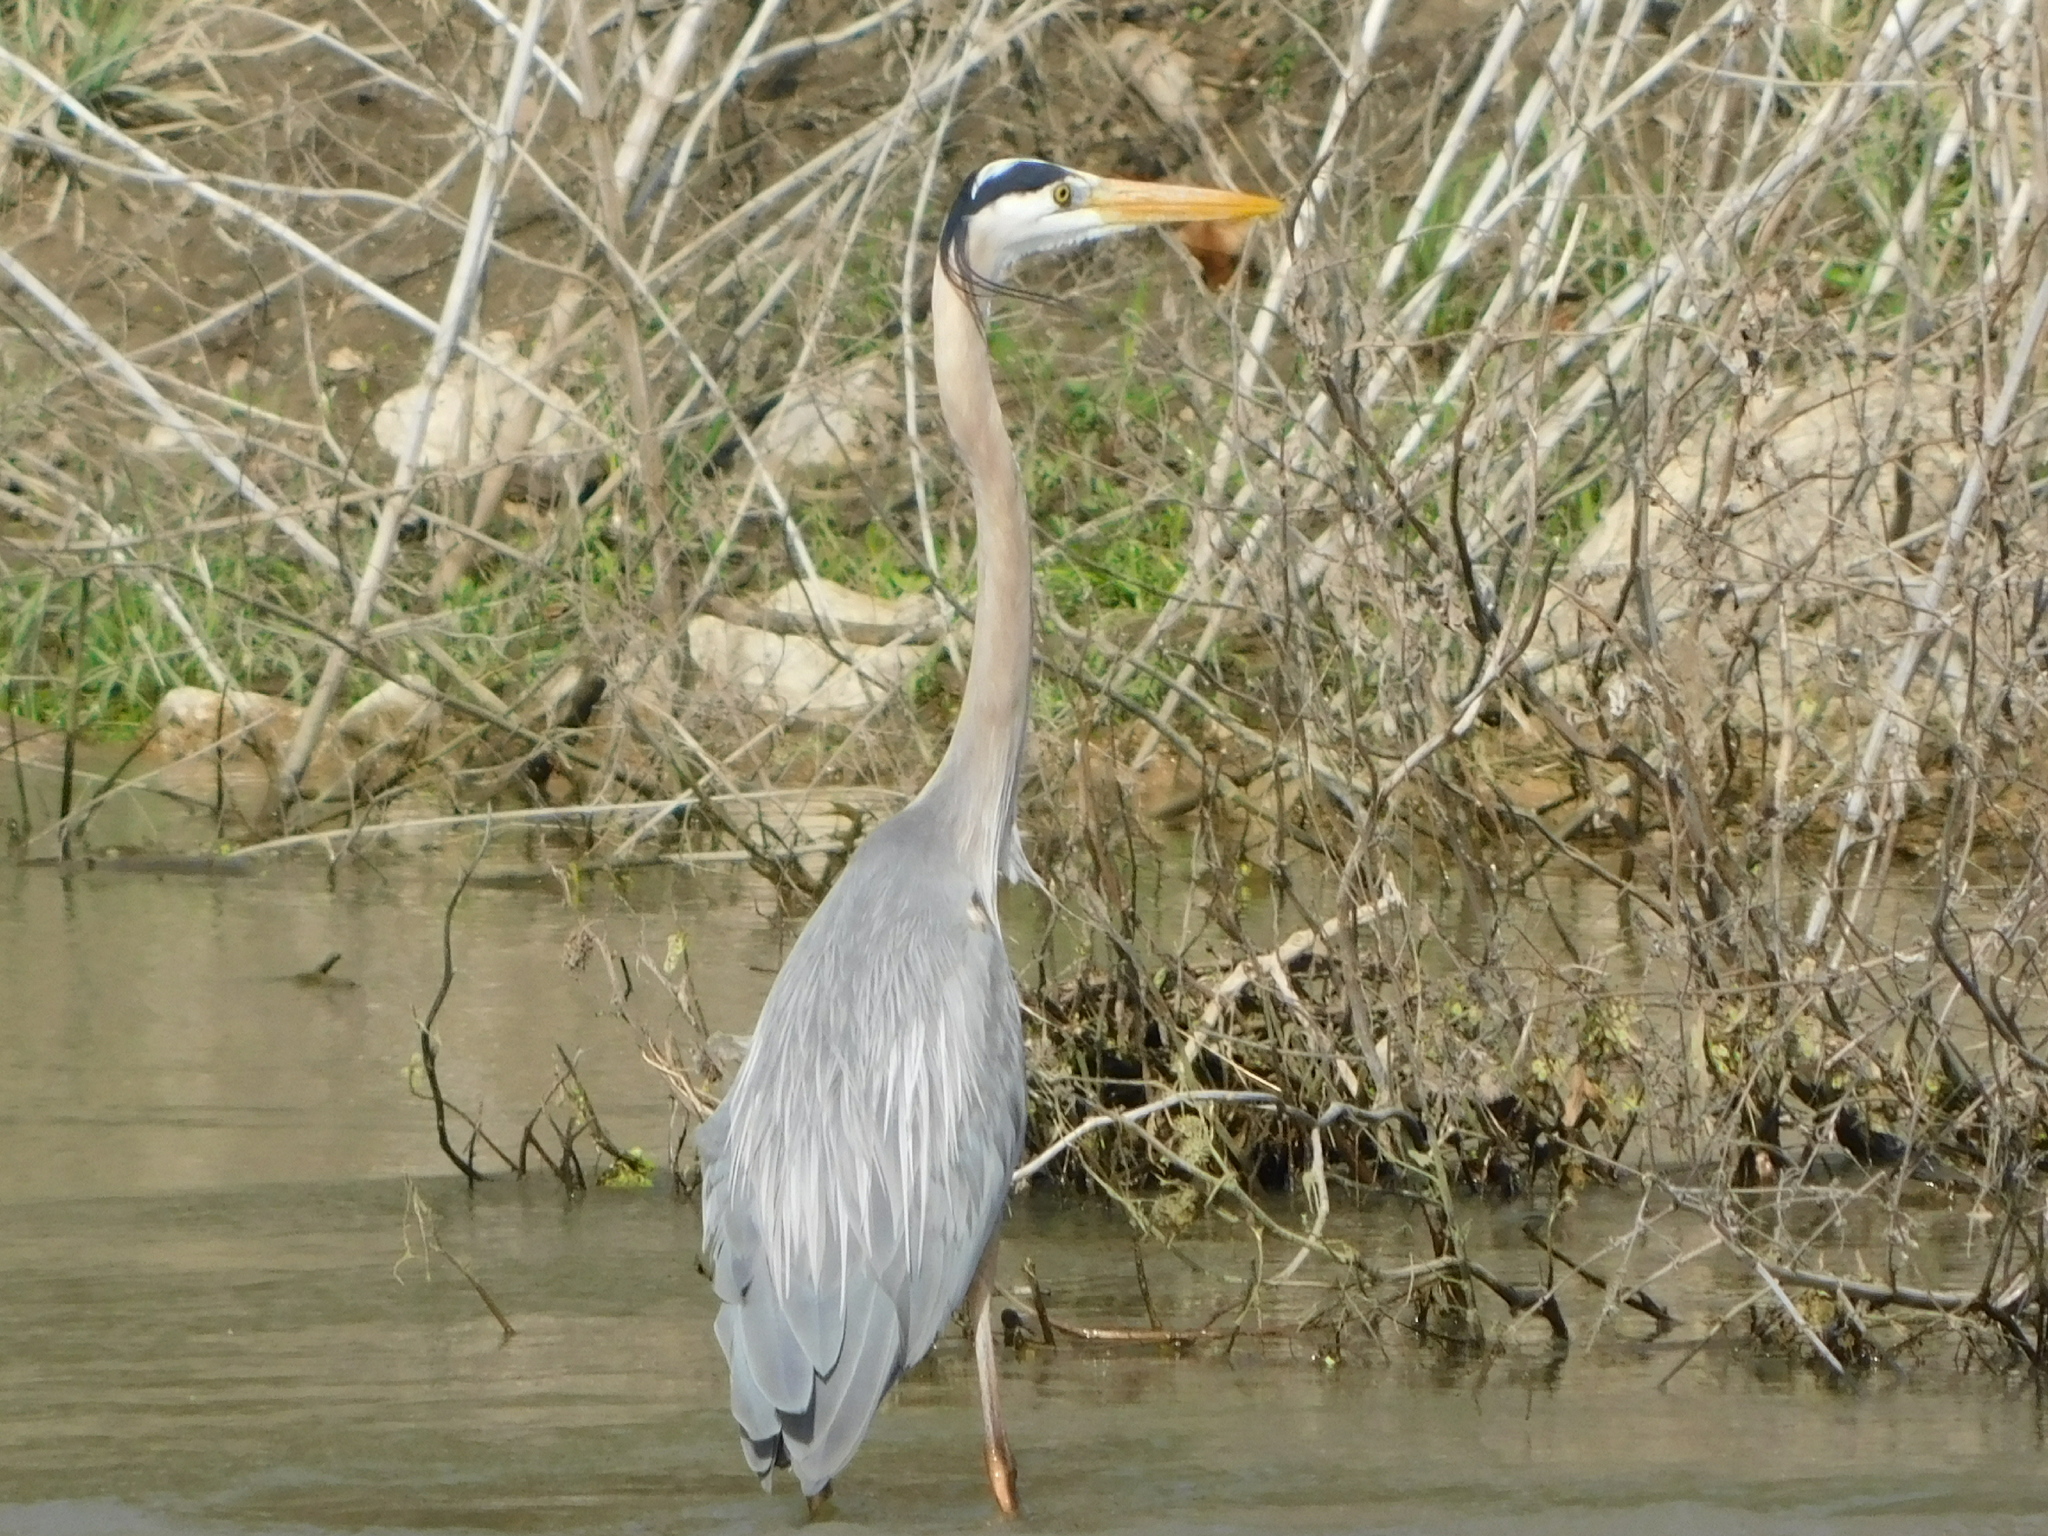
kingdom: Animalia
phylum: Chordata
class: Aves
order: Pelecaniformes
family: Ardeidae
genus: Ardea
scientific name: Ardea herodias
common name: Great blue heron
